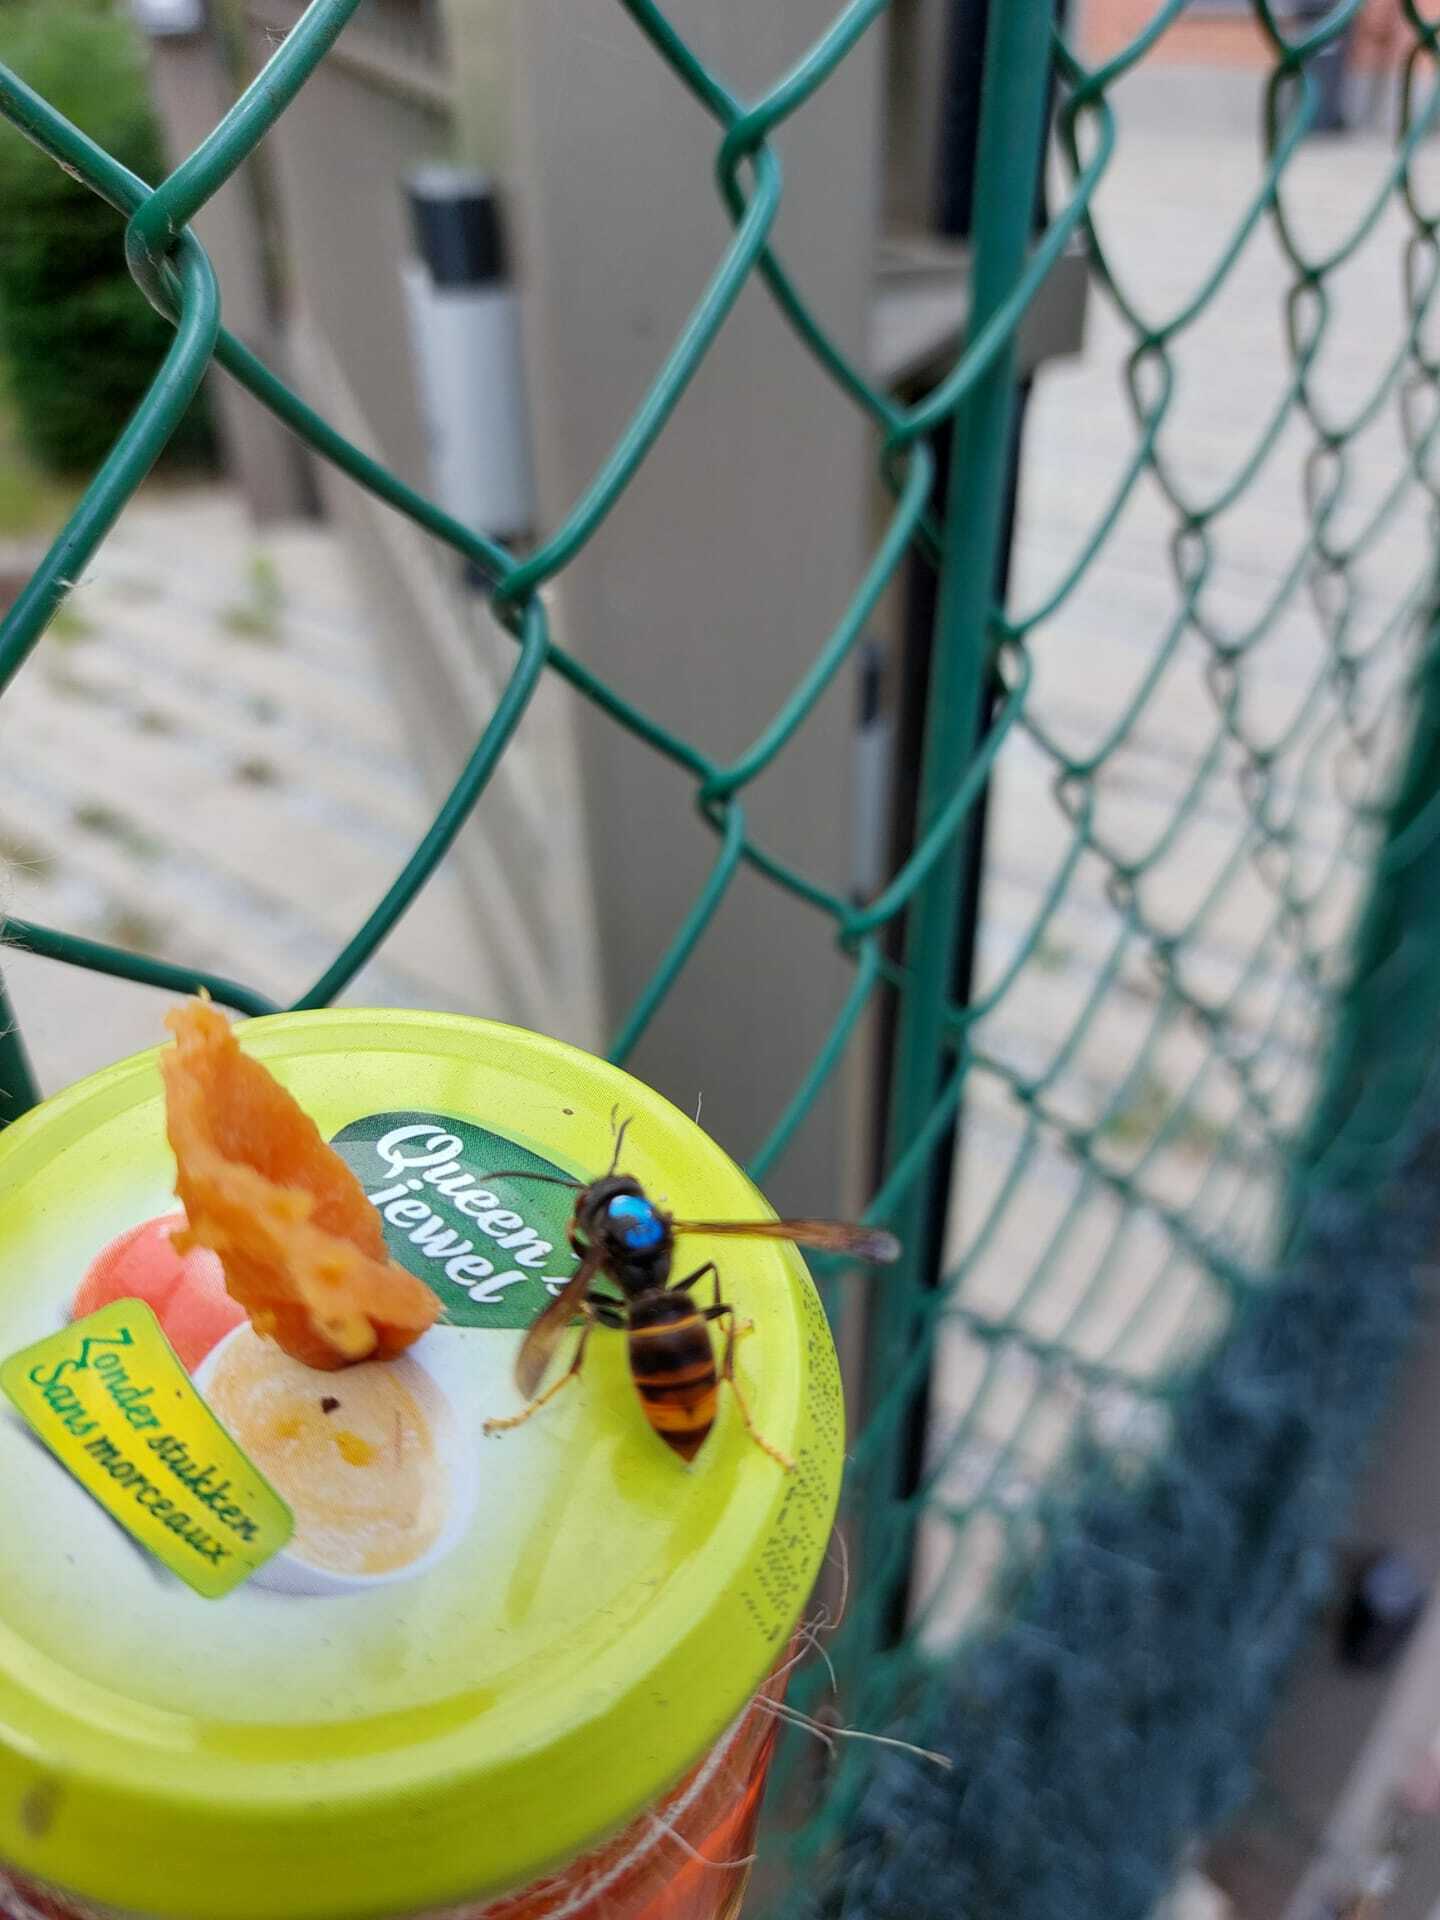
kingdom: Animalia
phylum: Arthropoda
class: Insecta
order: Hymenoptera
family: Vespidae
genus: Vespa
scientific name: Vespa velutina
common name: Asian hornet
